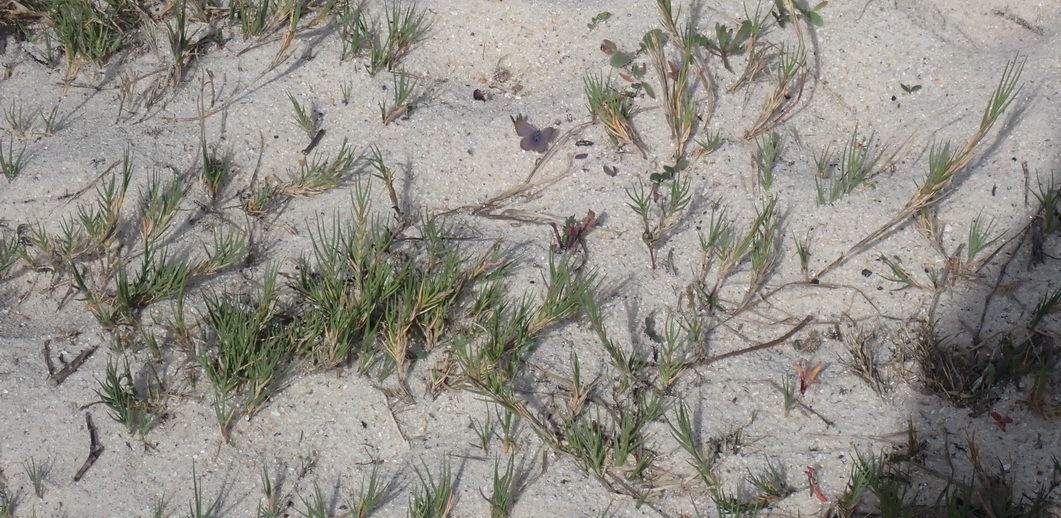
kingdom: Plantae
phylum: Tracheophyta
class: Liliopsida
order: Poales
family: Poaceae
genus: Sporobolus
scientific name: Sporobolus virginicus
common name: Beach dropseed
